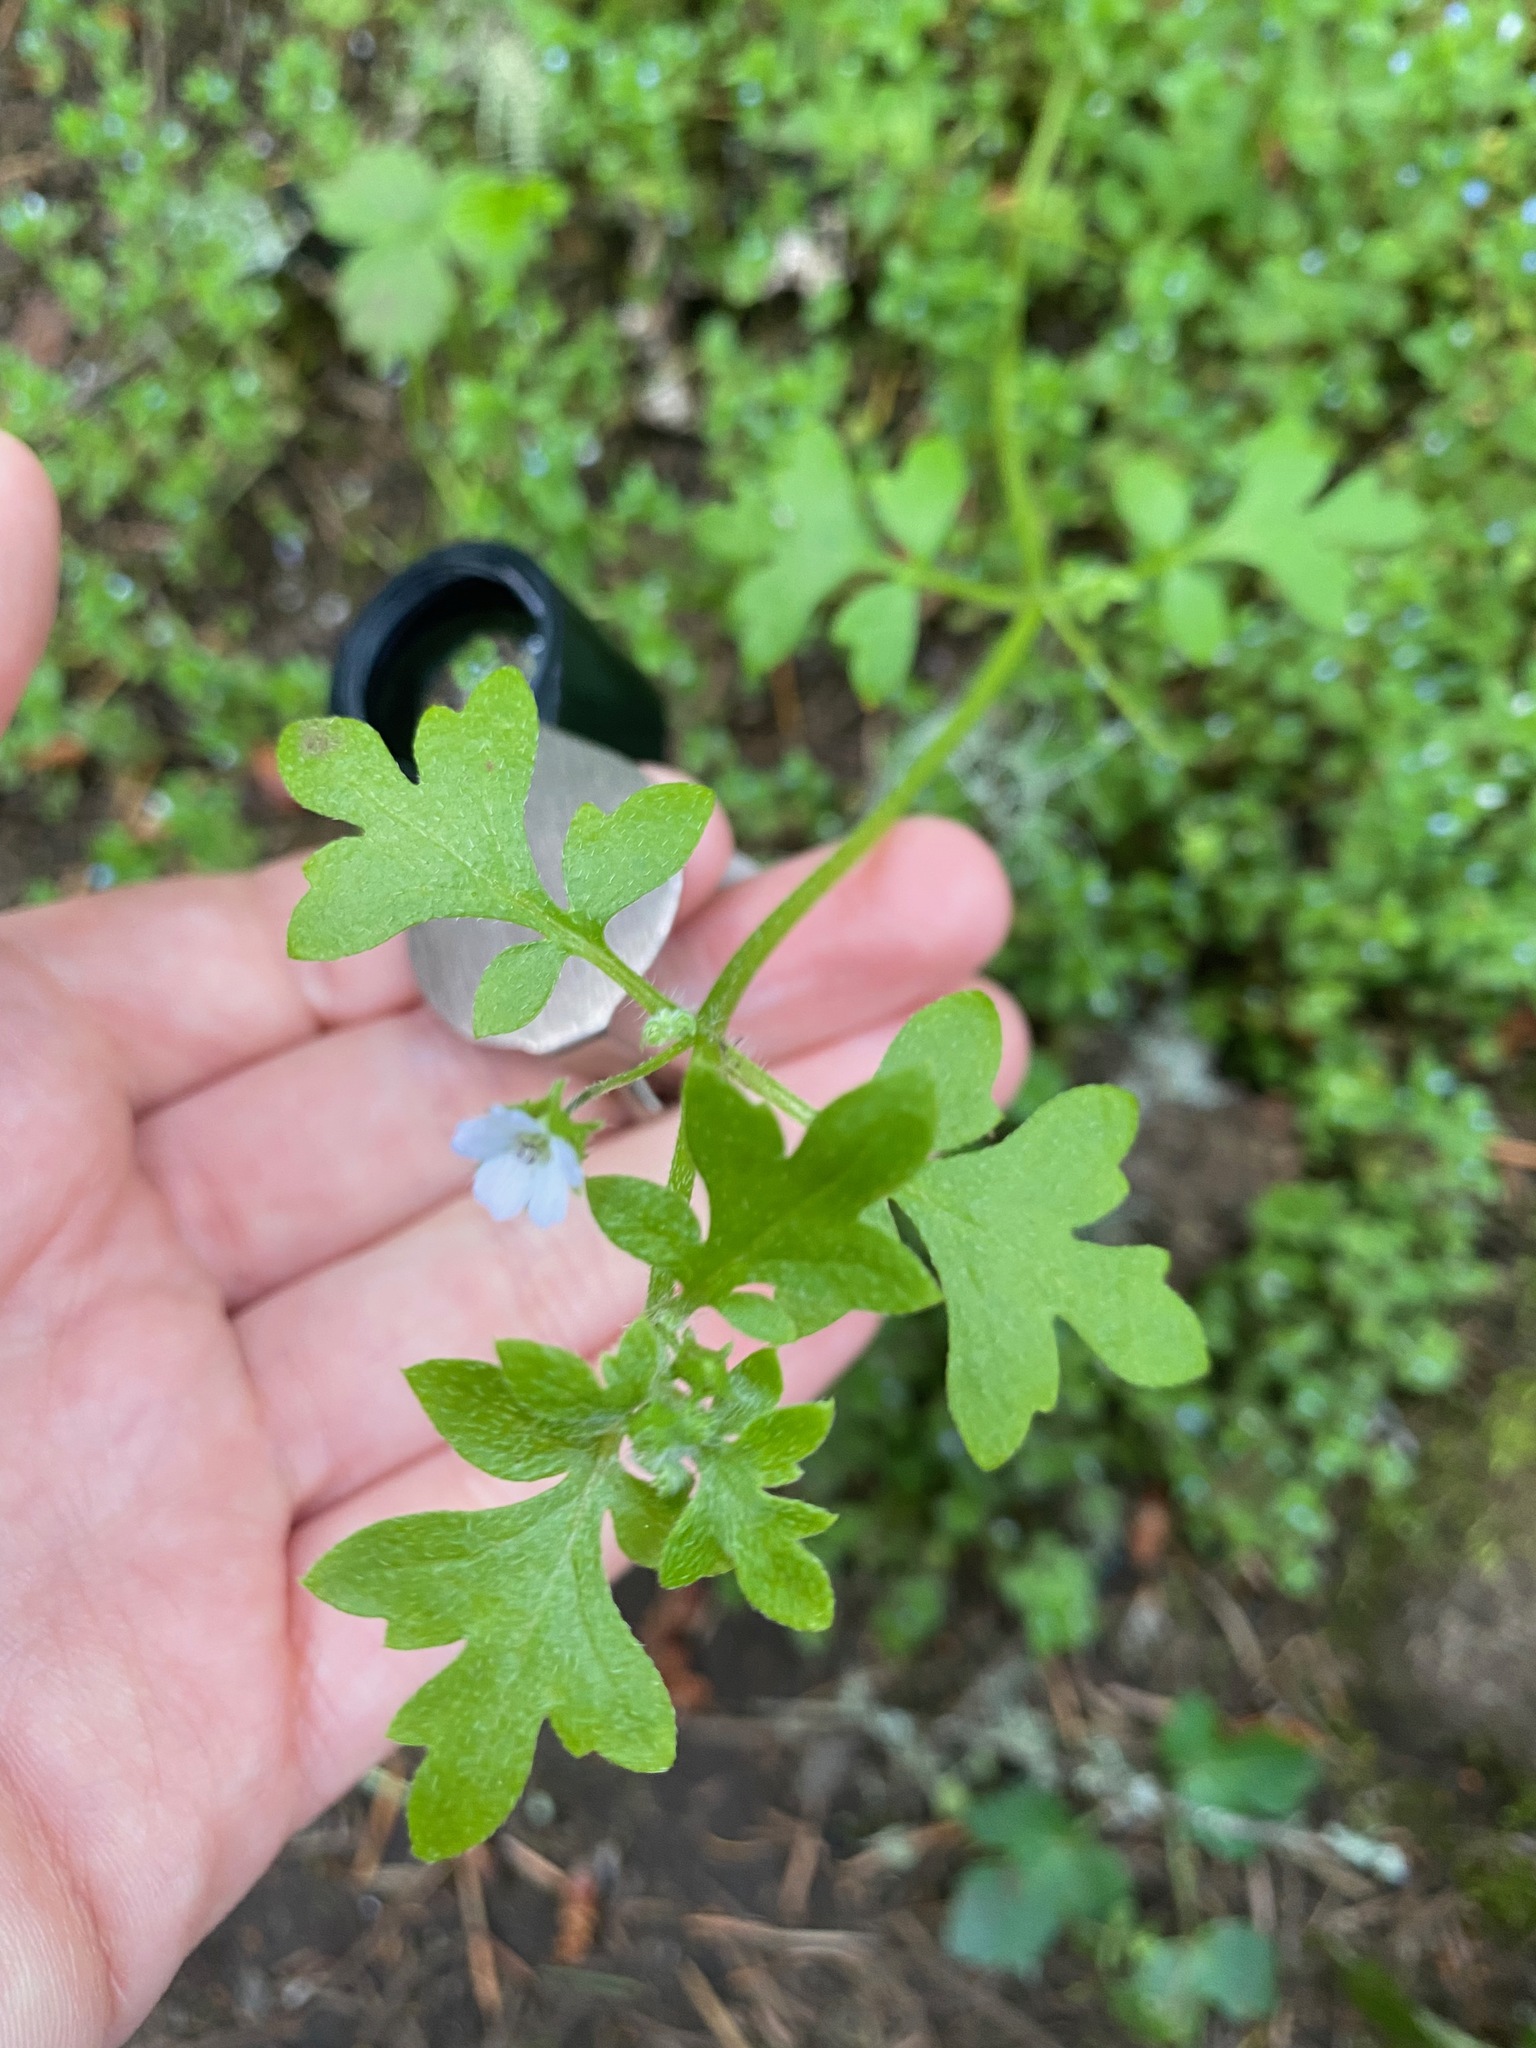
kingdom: Plantae
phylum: Tracheophyta
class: Magnoliopsida
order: Boraginales
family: Hydrophyllaceae
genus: Nemophila
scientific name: Nemophila parviflora
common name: Small-flowered baby-blue-eyes
